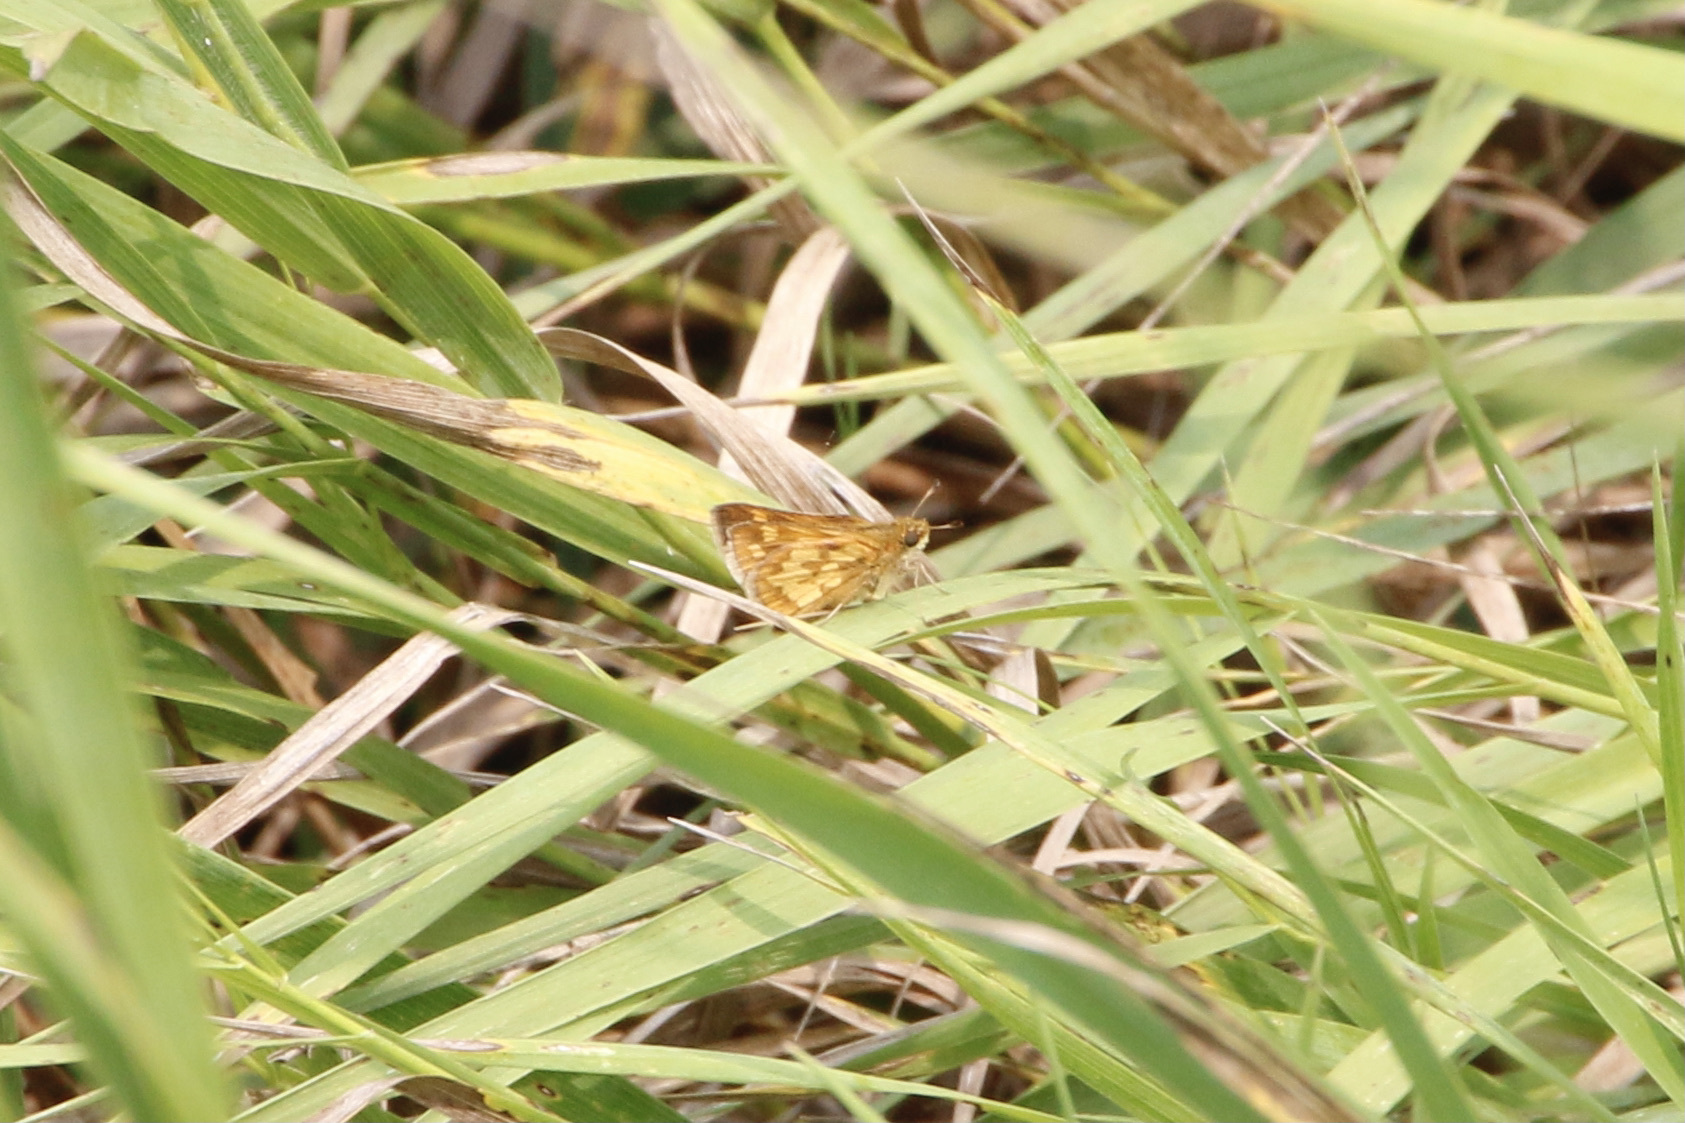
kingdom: Animalia
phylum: Arthropoda
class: Insecta
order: Lepidoptera
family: Hesperiidae
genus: Polites
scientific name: Polites coras
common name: Peck's skipper
